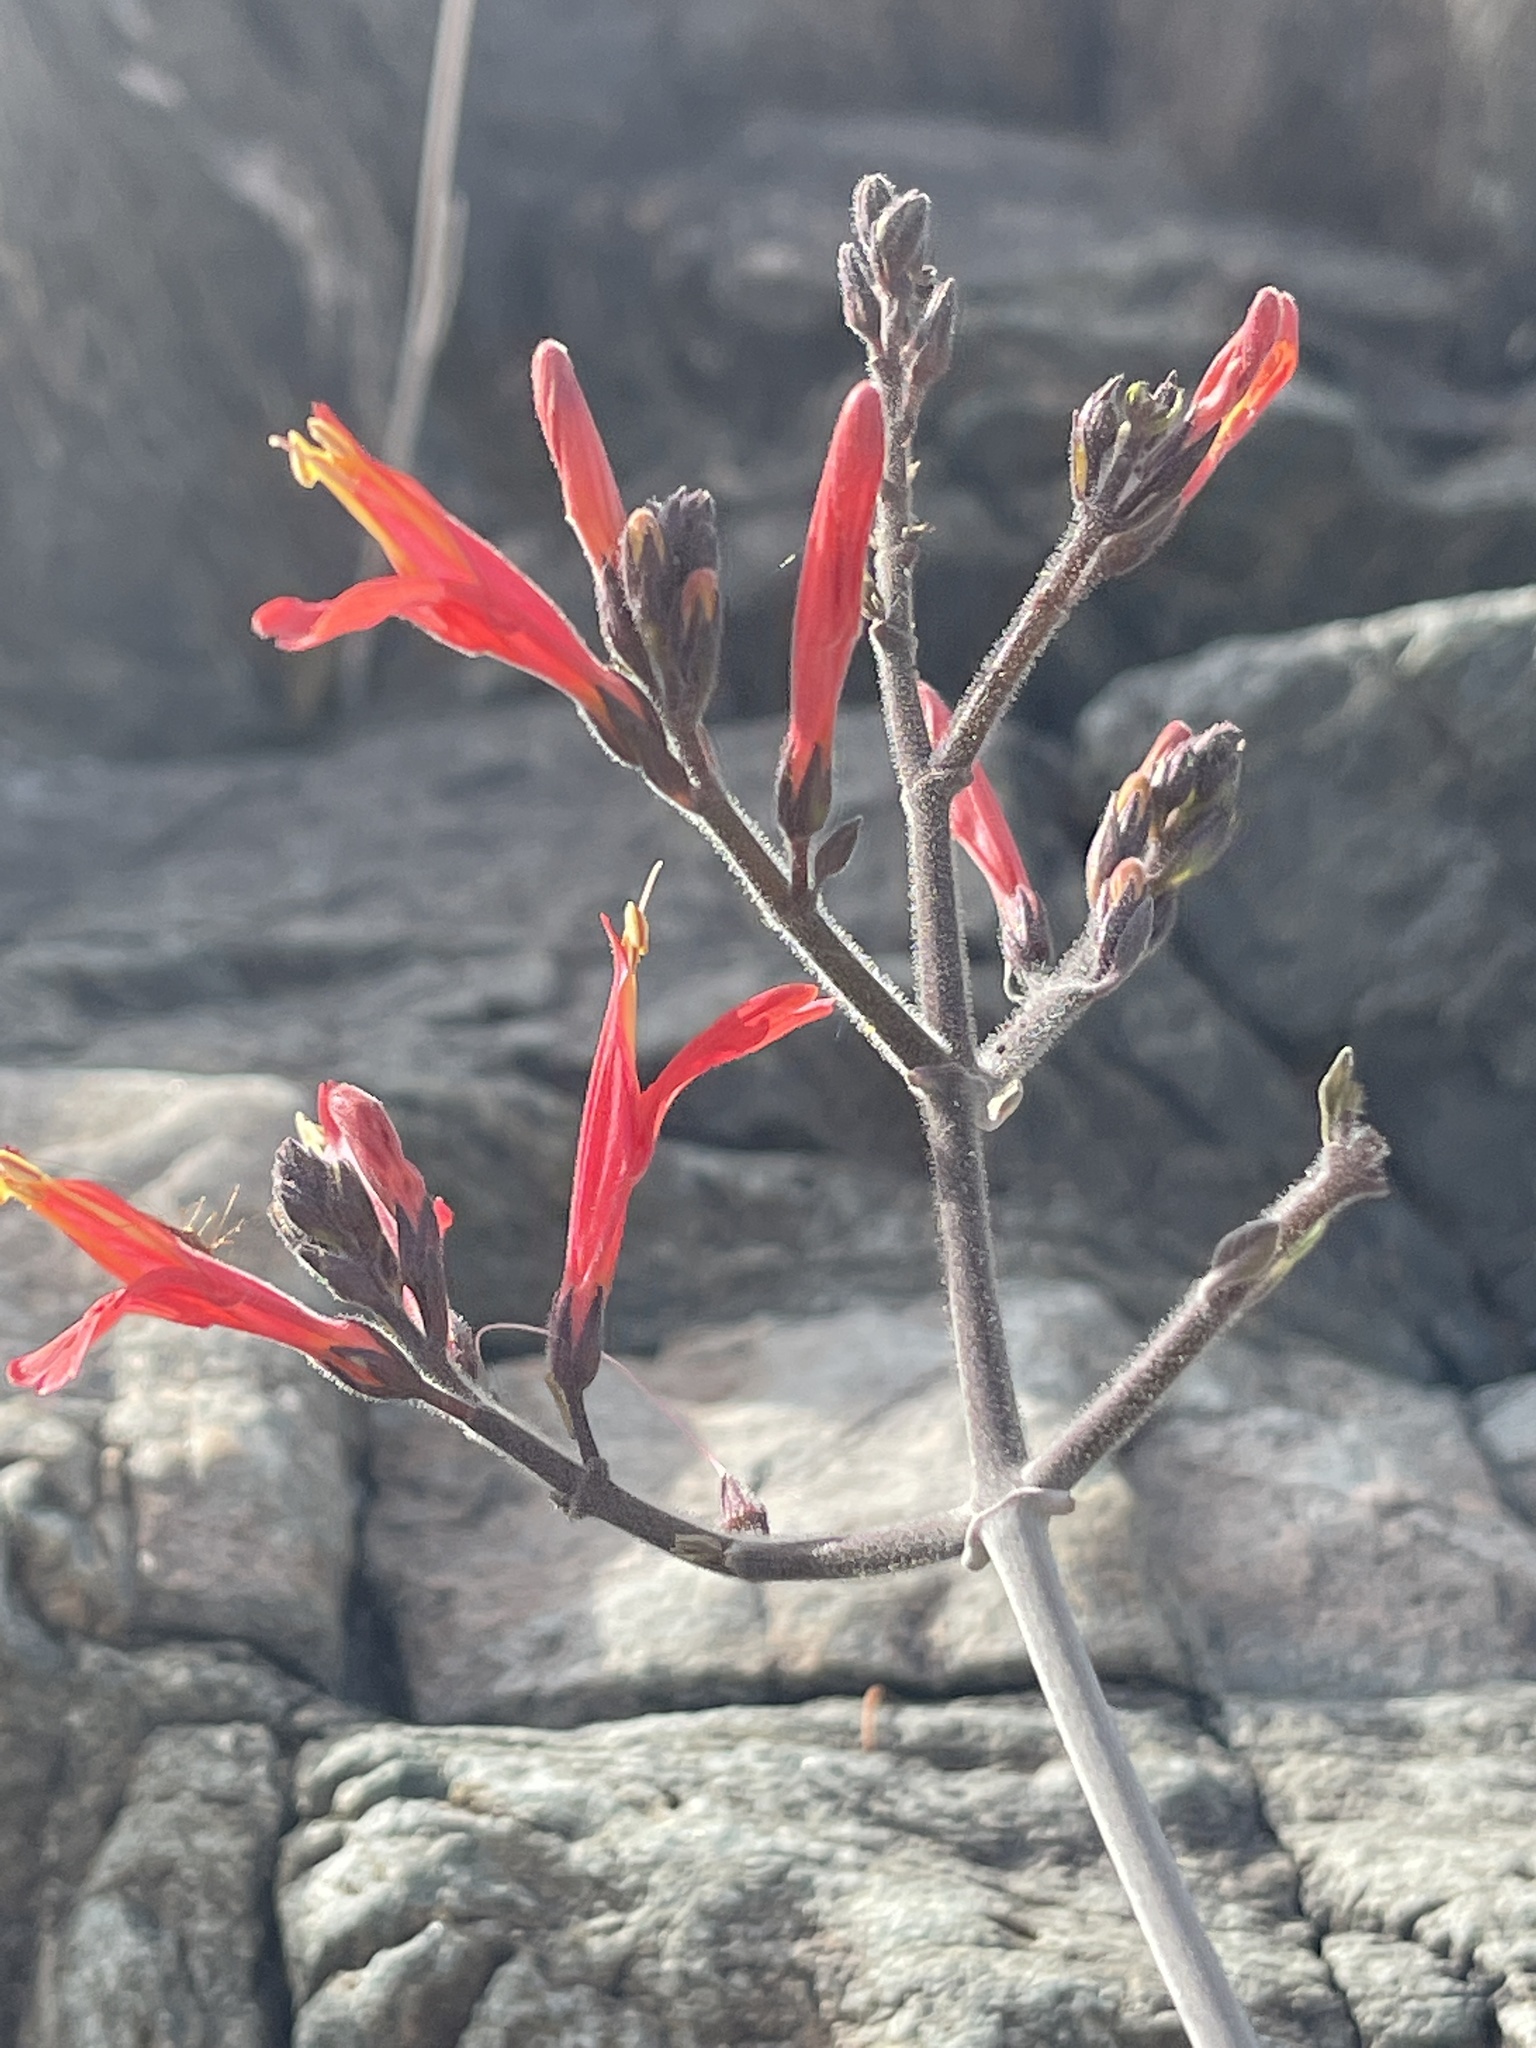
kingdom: Plantae
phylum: Tracheophyta
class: Magnoliopsida
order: Lamiales
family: Acanthaceae
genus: Justicia
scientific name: Justicia californica
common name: Chuparosa-honeysuckle
